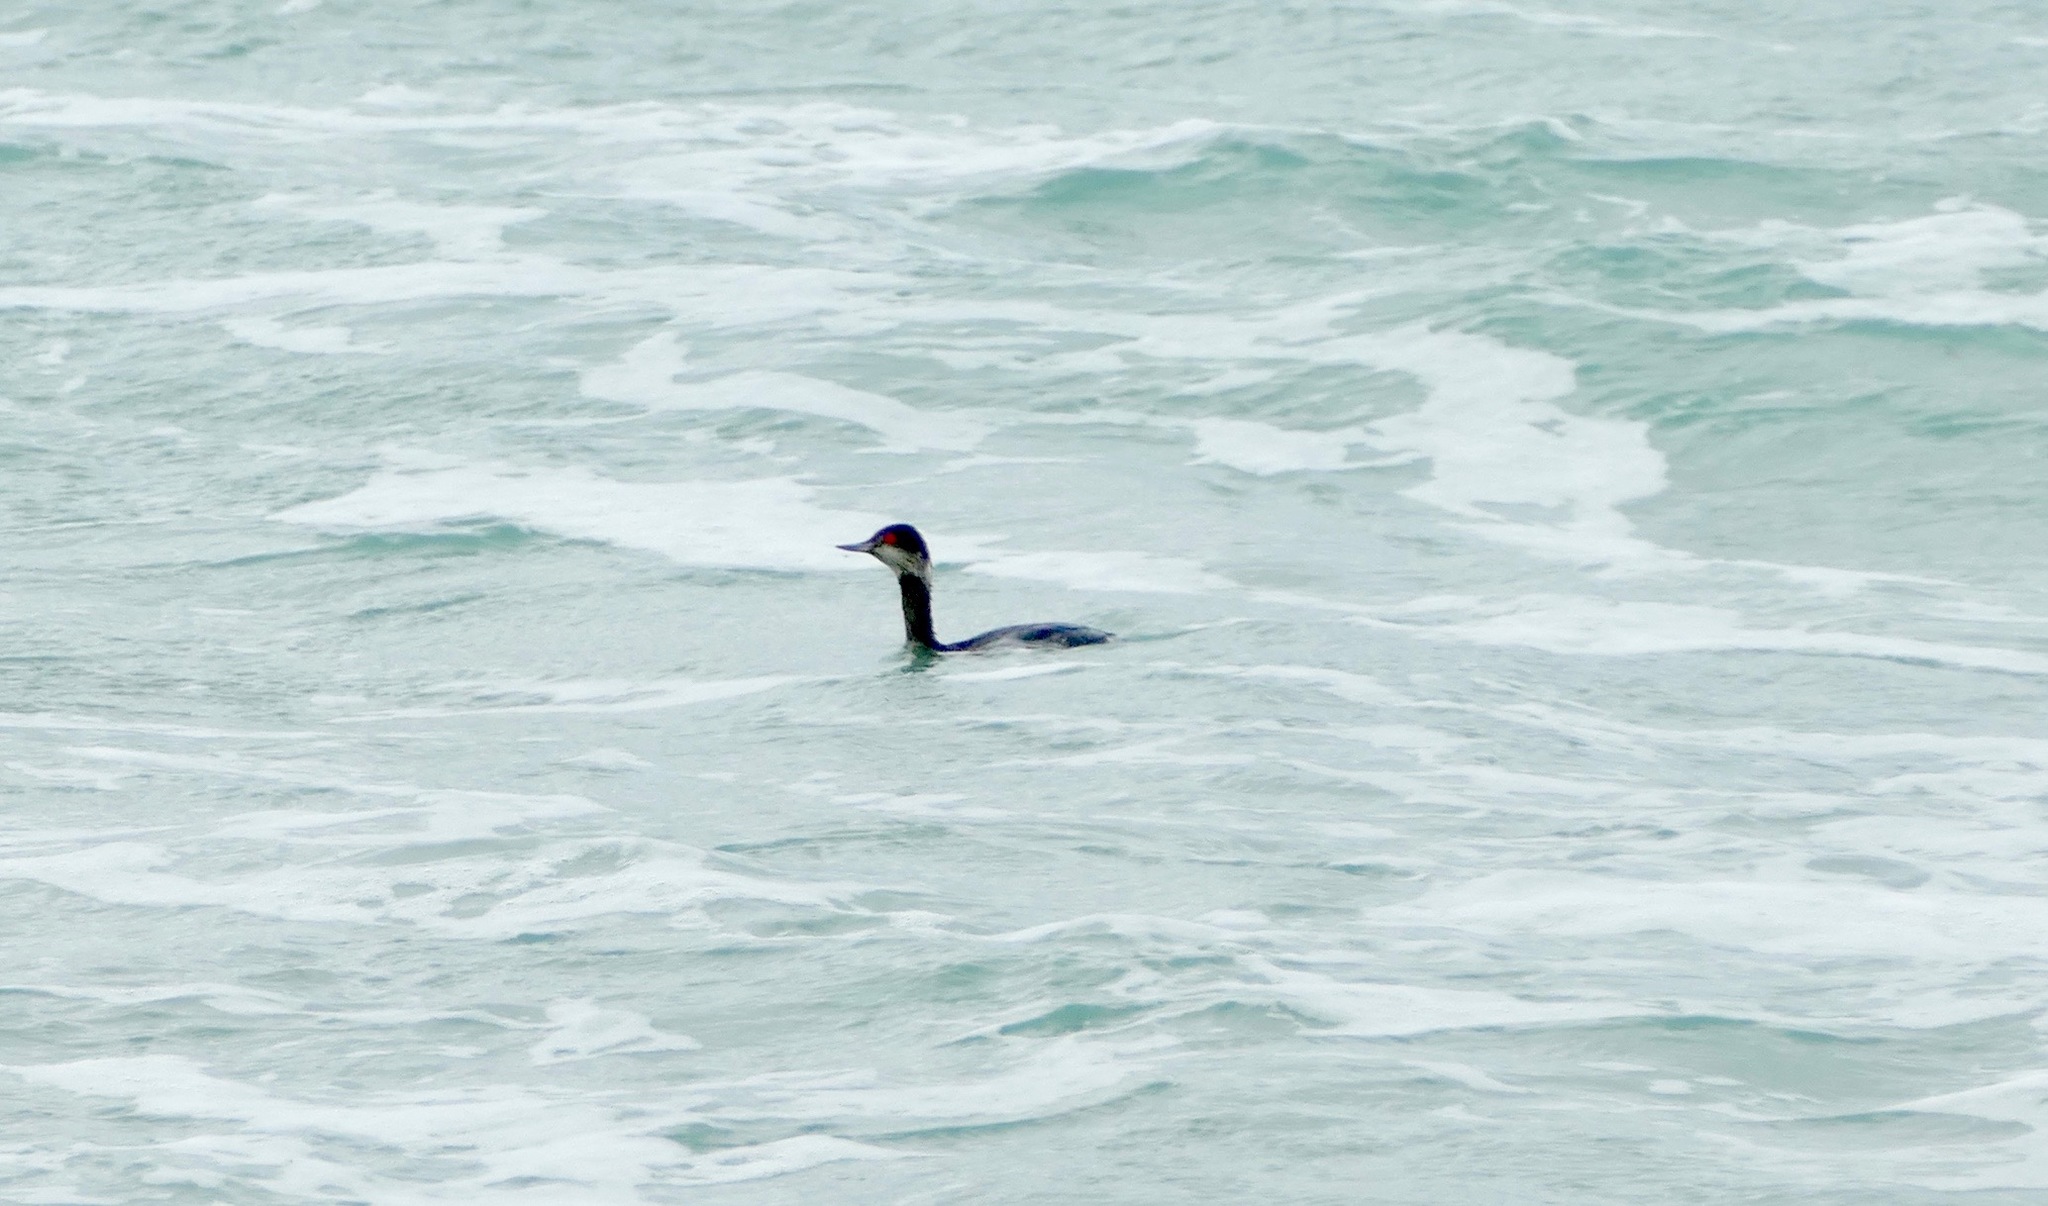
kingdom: Animalia
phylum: Chordata
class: Aves
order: Podicipediformes
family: Podicipedidae
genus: Podiceps
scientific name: Podiceps nigricollis
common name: Black-necked grebe
